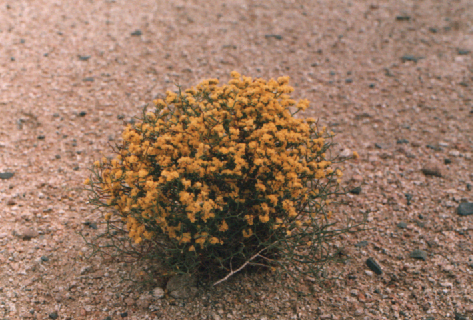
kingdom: Plantae
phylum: Tracheophyta
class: Magnoliopsida
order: Caryophyllales
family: Plumbaginaceae
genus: Limonium
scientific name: Limonium aureum
